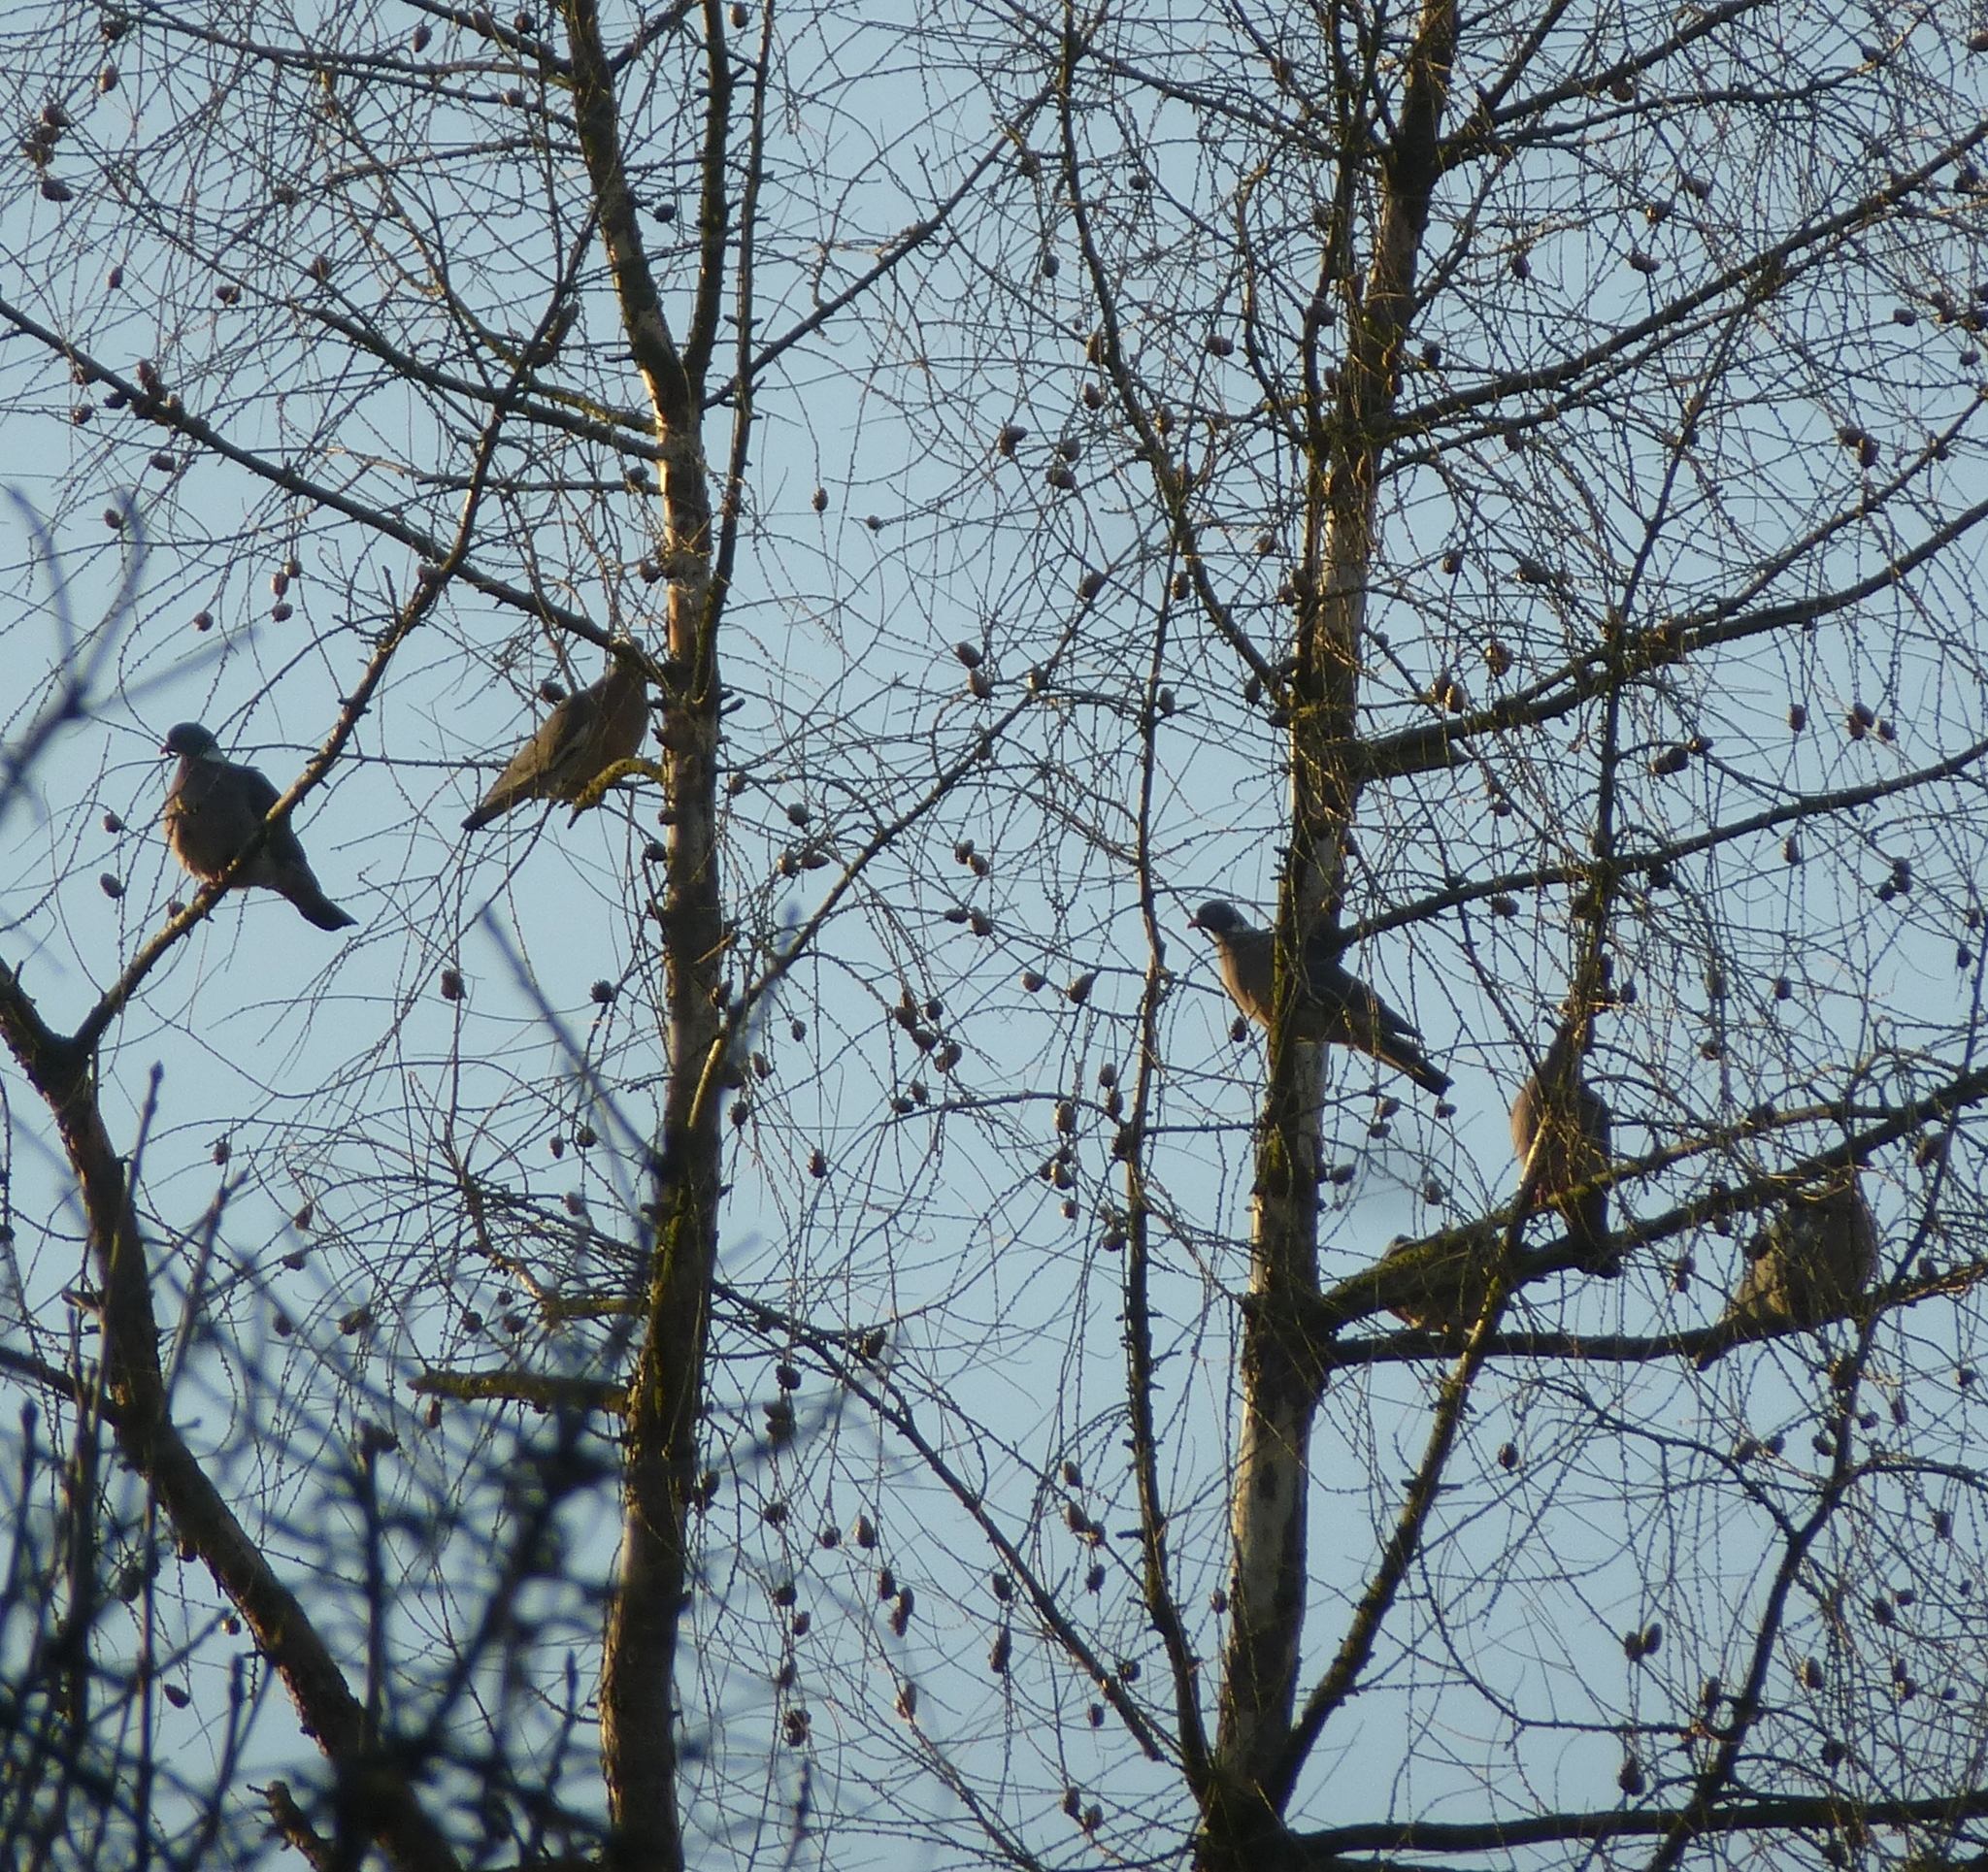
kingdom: Animalia
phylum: Chordata
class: Aves
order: Columbiformes
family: Columbidae
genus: Columba
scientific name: Columba palumbus
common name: Common wood pigeon
